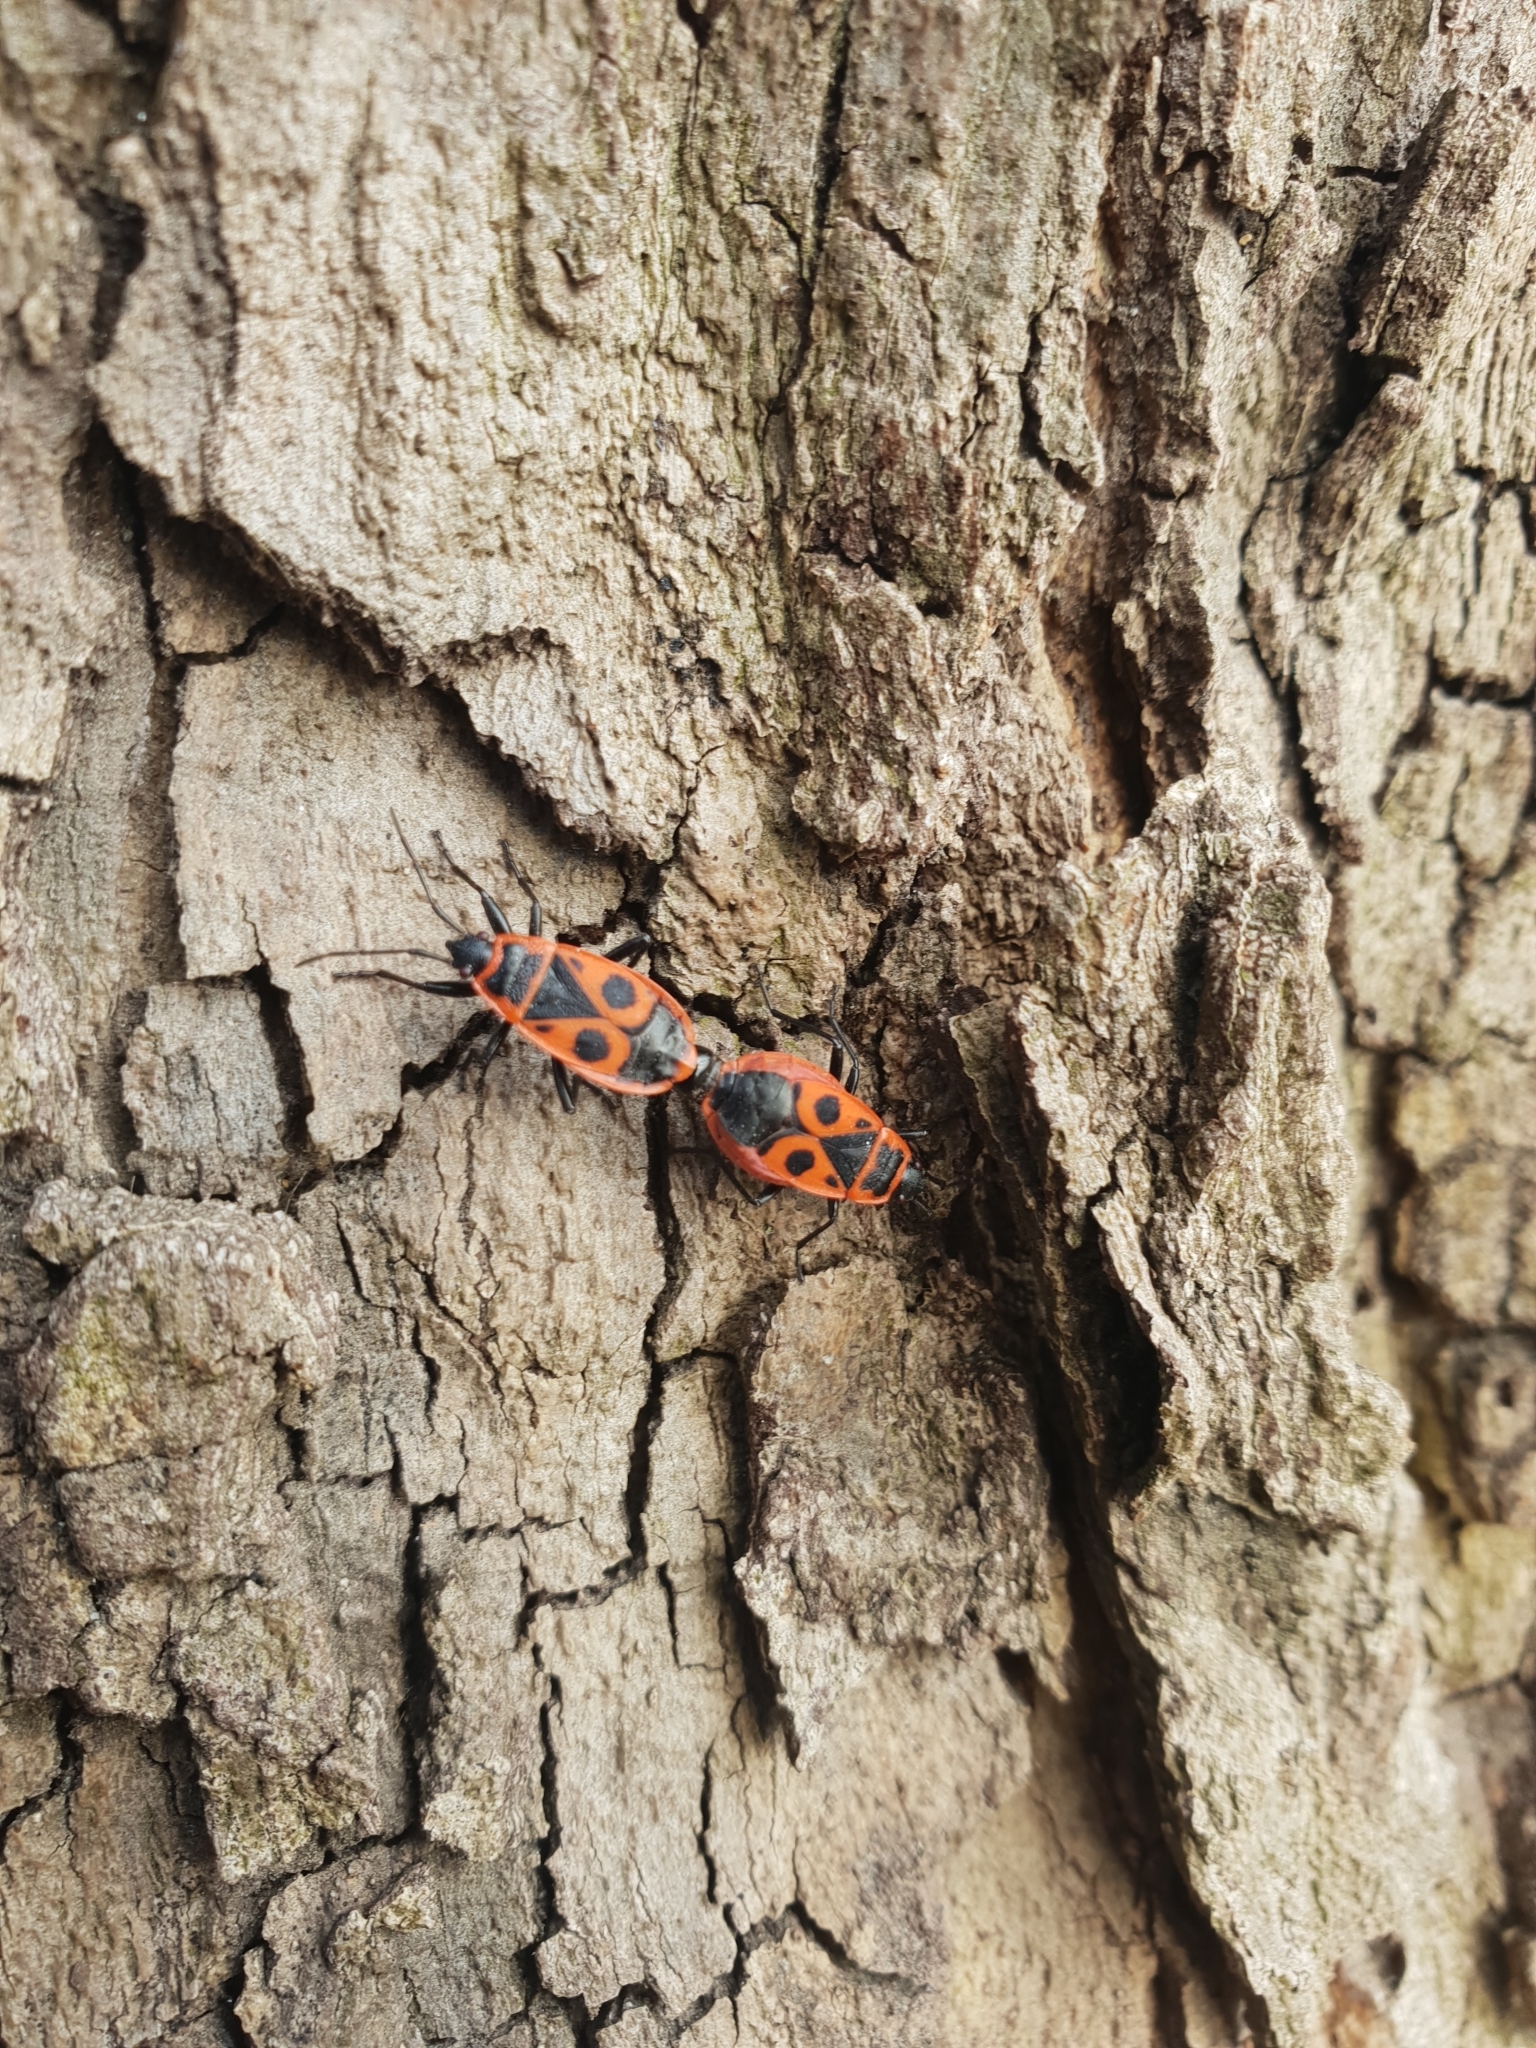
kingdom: Animalia
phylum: Arthropoda
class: Insecta
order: Hemiptera
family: Pyrrhocoridae
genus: Pyrrhocoris
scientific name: Pyrrhocoris apterus
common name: Firebug
